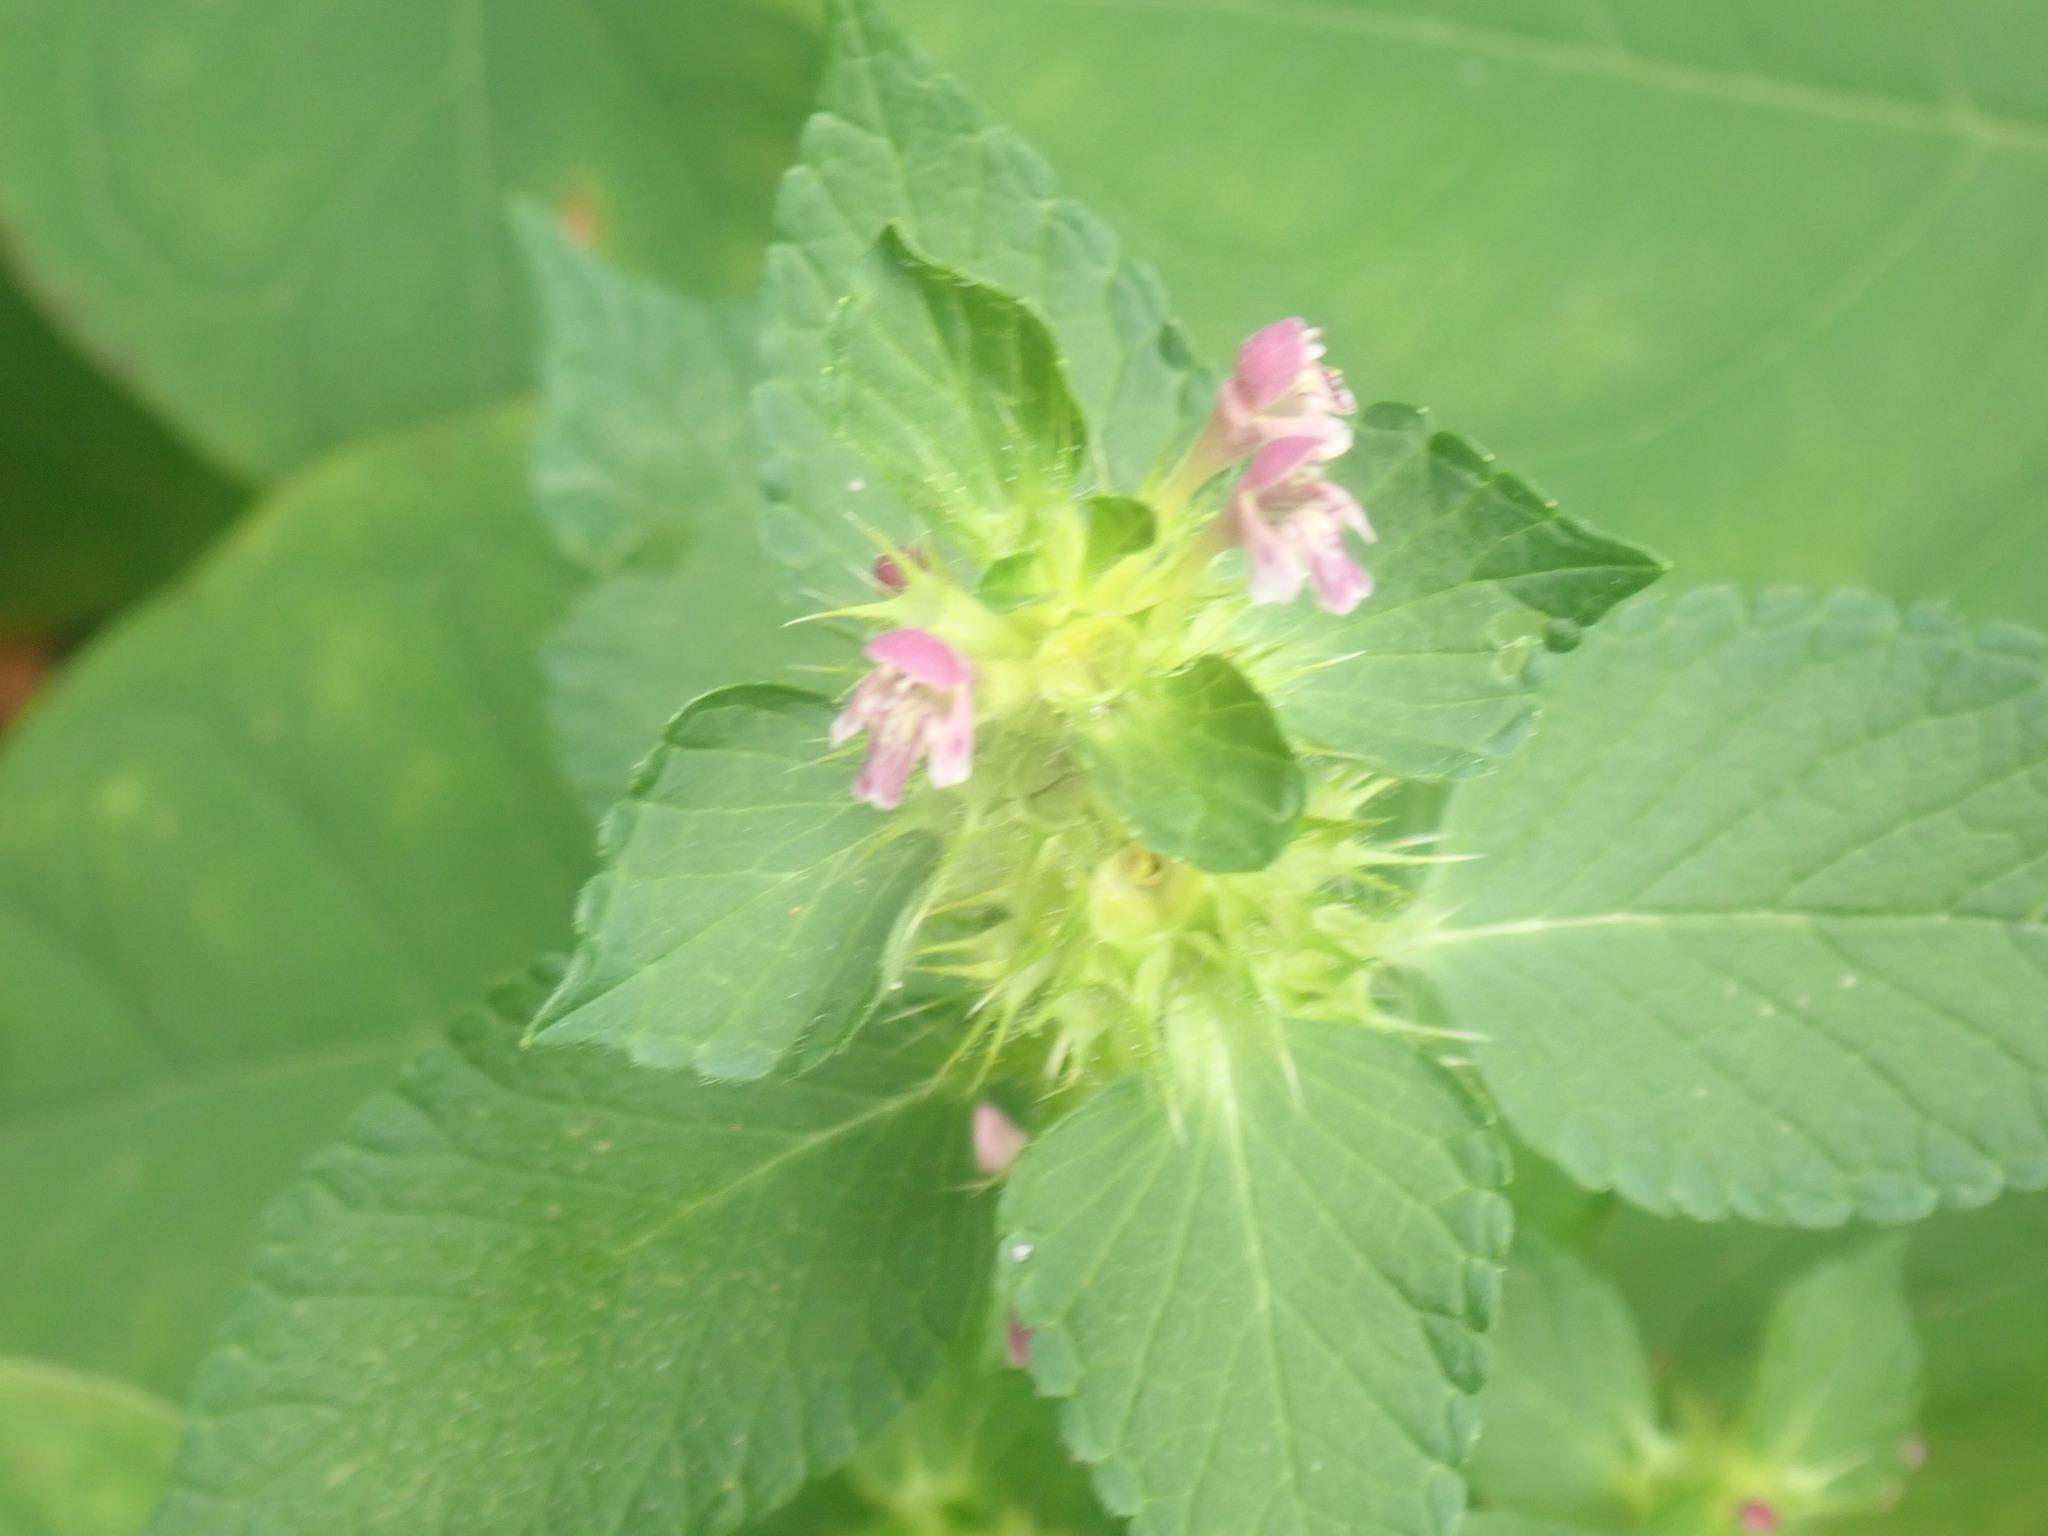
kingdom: Plantae
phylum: Tracheophyta
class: Magnoliopsida
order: Lamiales
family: Lamiaceae
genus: Galeopsis
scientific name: Galeopsis bifida
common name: Bifid hemp-nettle
